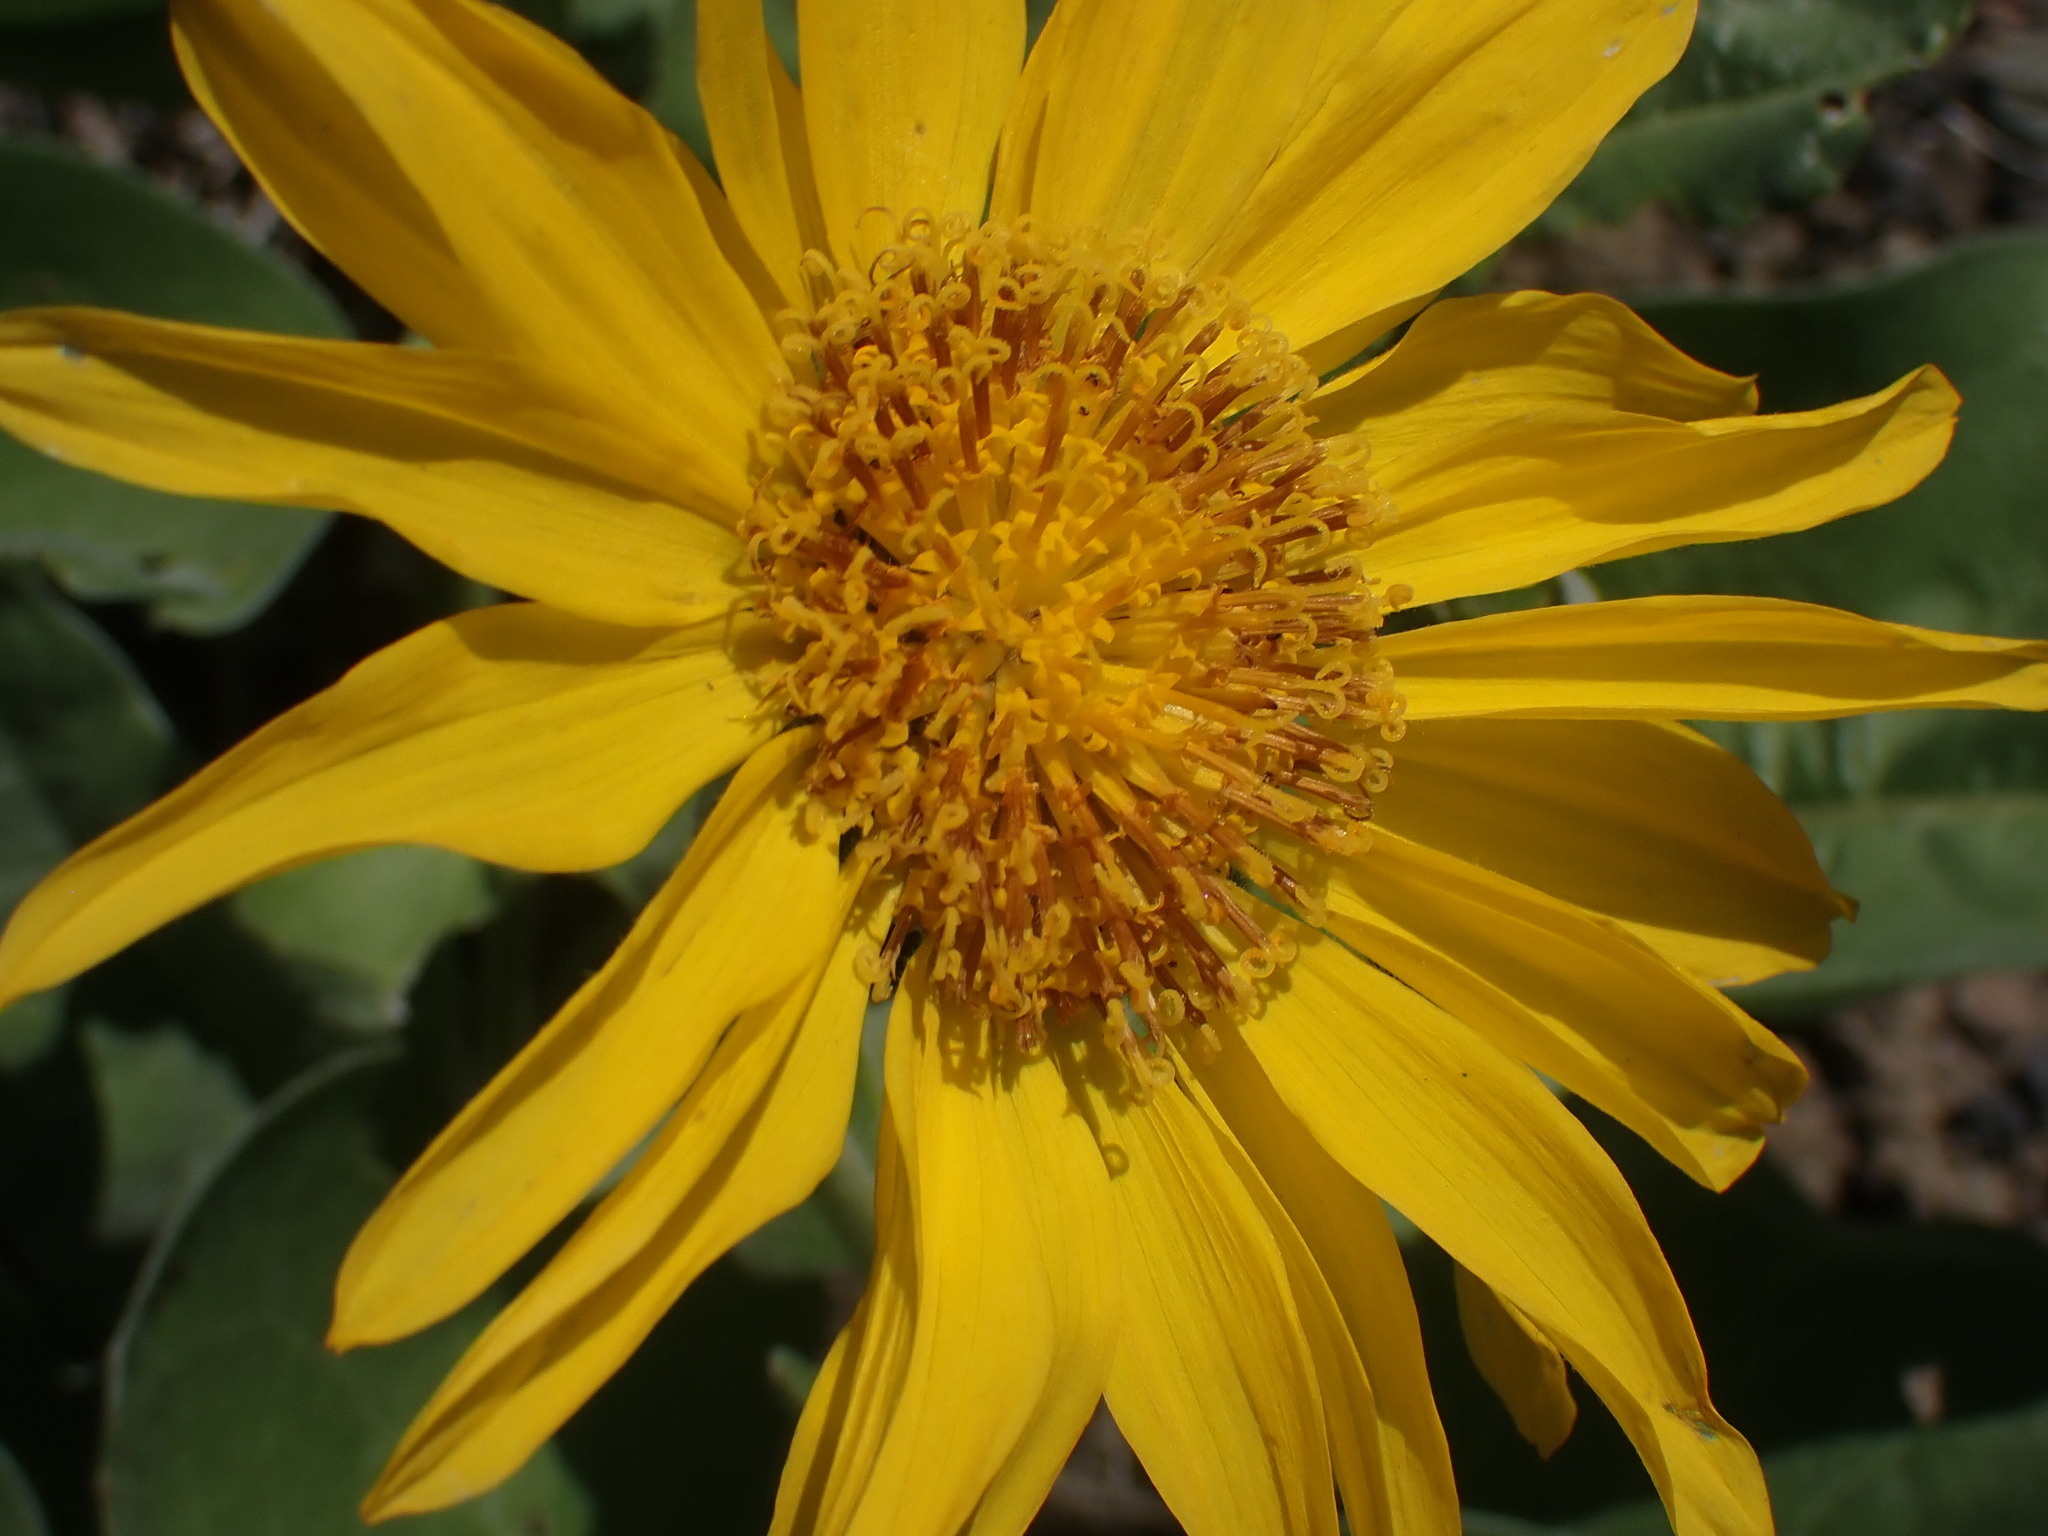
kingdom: Plantae
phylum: Tracheophyta
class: Magnoliopsida
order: Asterales
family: Asteraceae
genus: Wyethia
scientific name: Wyethia sagittata
